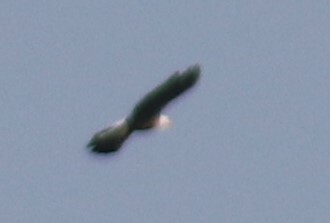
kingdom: Animalia
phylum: Chordata
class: Aves
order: Accipitriformes
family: Accipitridae
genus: Haliaeetus
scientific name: Haliaeetus leucocephalus
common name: Bald eagle
